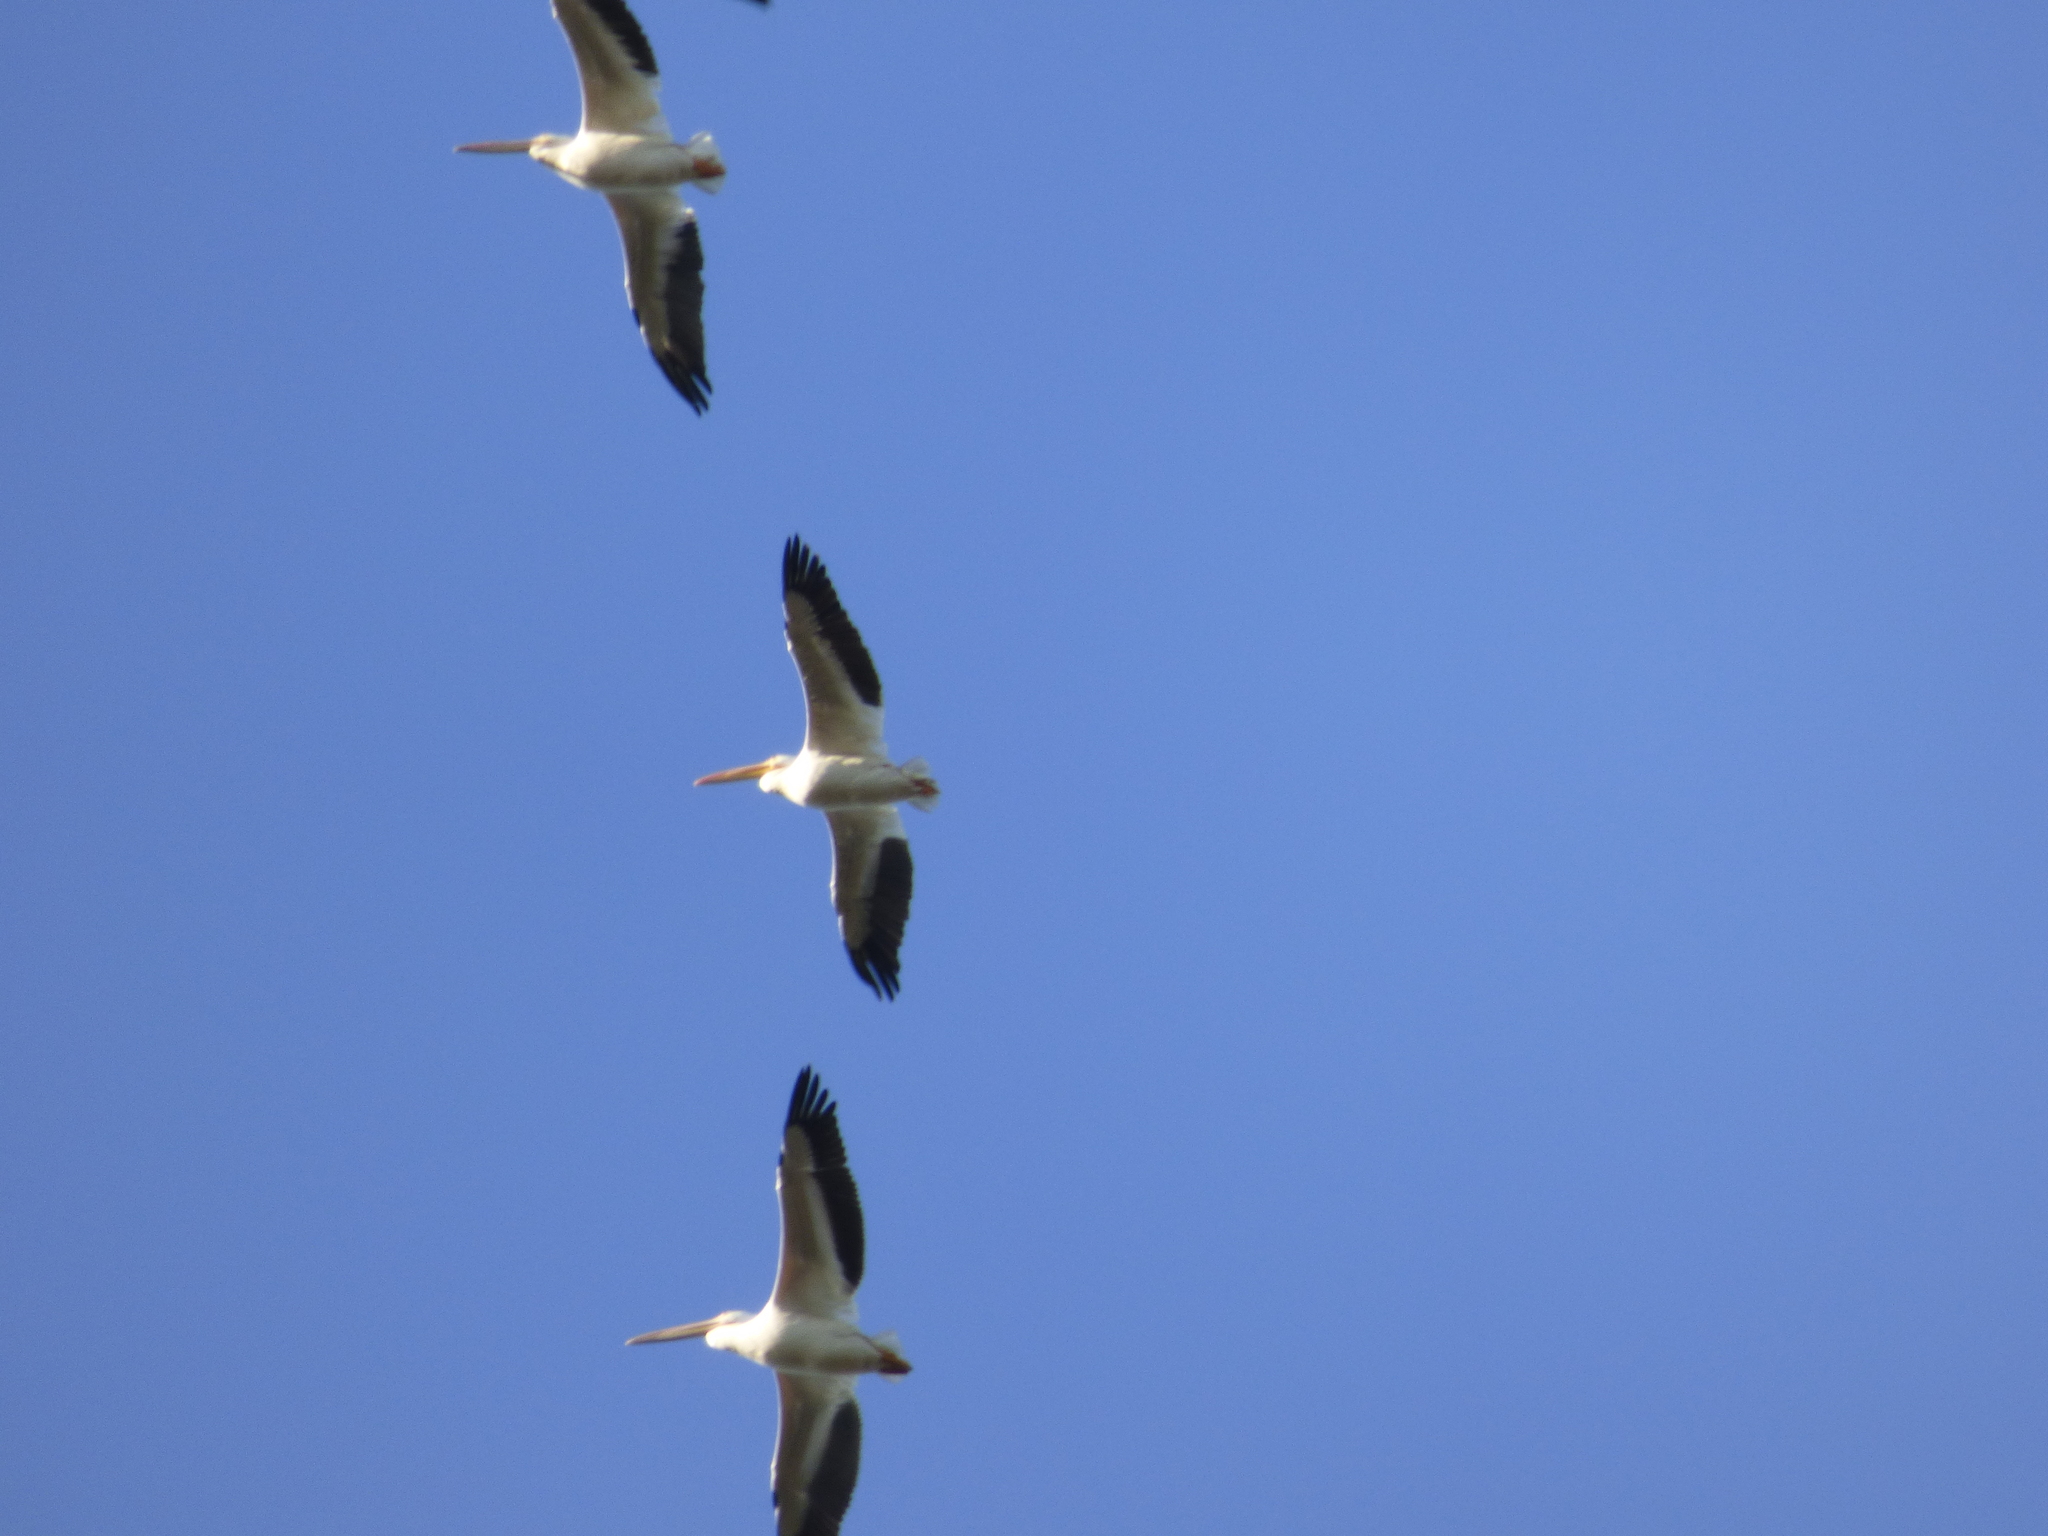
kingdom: Animalia
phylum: Chordata
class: Aves
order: Pelecaniformes
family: Pelecanidae
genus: Pelecanus
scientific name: Pelecanus erythrorhynchos
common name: American white pelican
